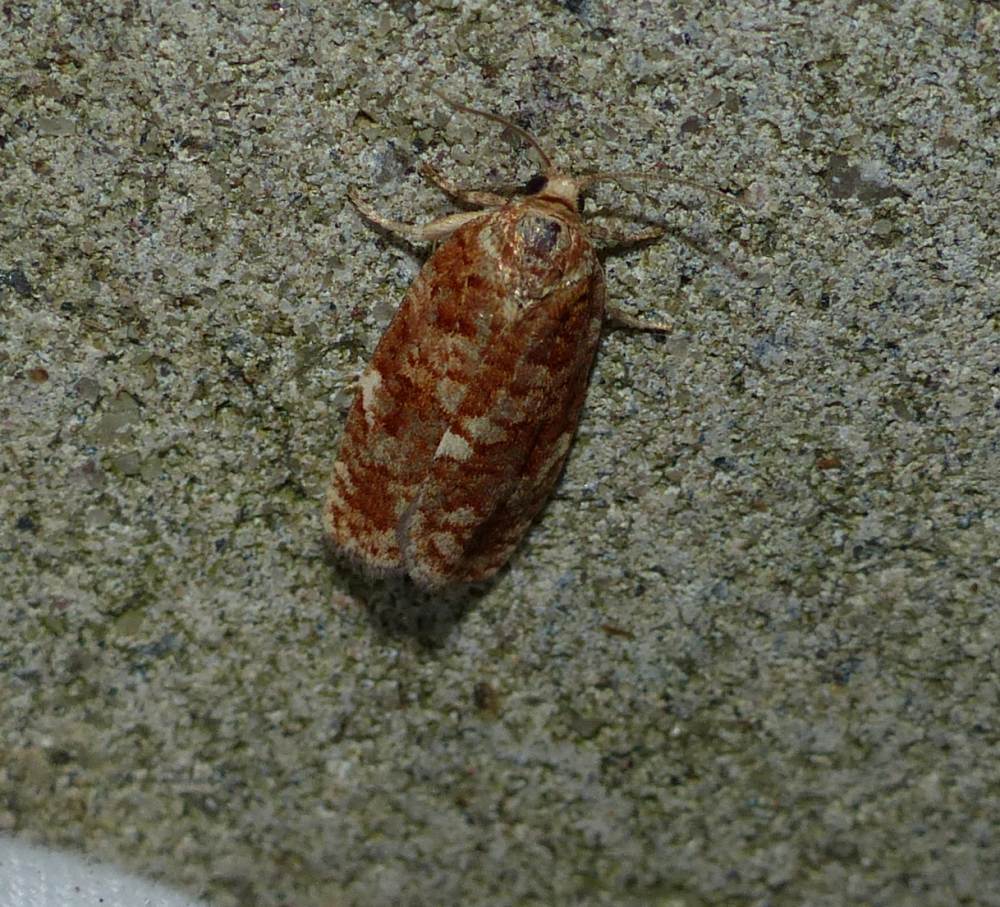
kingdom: Animalia
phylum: Arthropoda
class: Insecta
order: Lepidoptera
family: Tortricidae
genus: Choristoneura
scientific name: Choristoneura pinus
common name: Jack pine budworm
